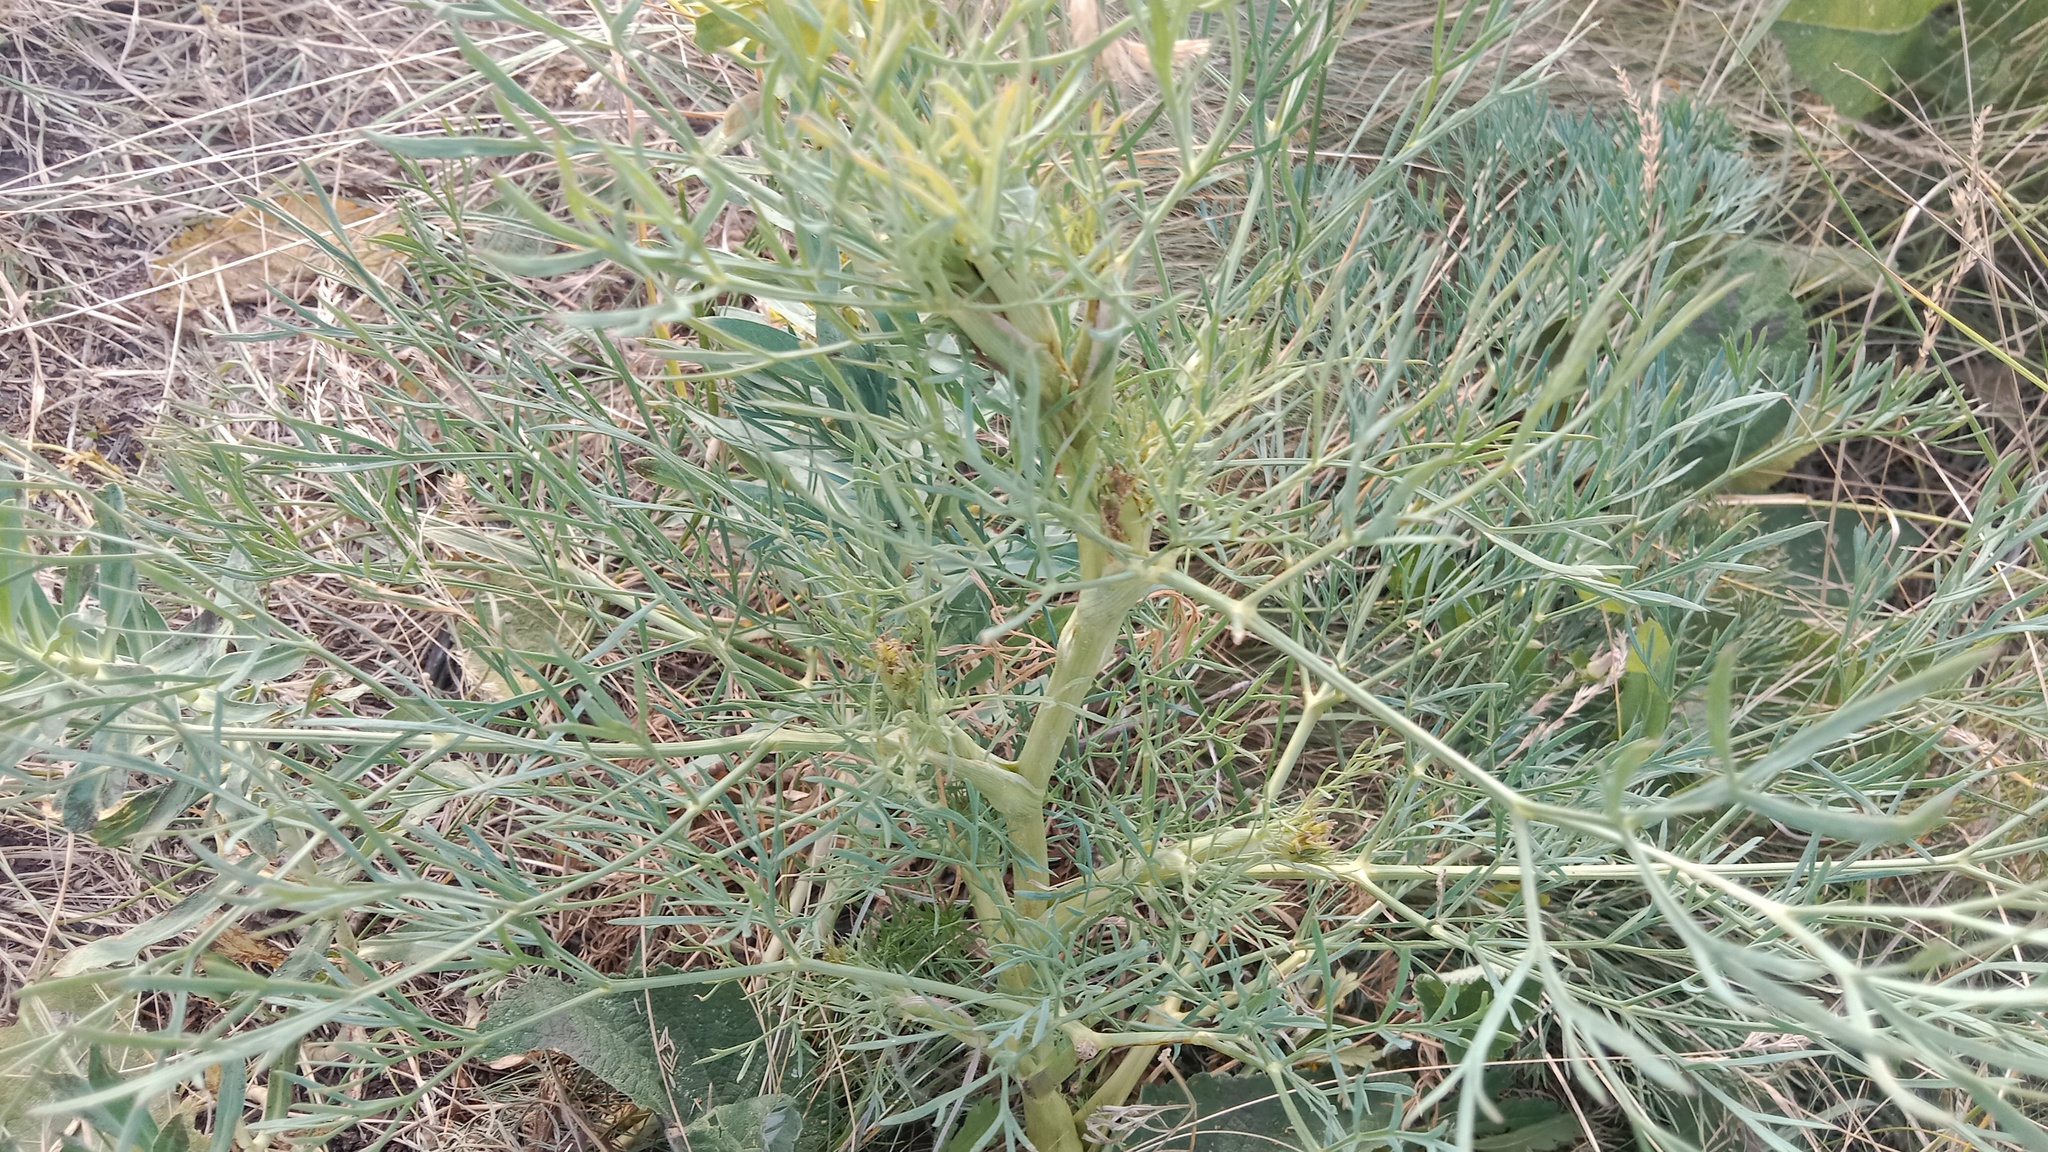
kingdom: Plantae
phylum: Tracheophyta
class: Magnoliopsida
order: Apiales
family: Apiaceae
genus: Seseli
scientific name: Seseli campestre
